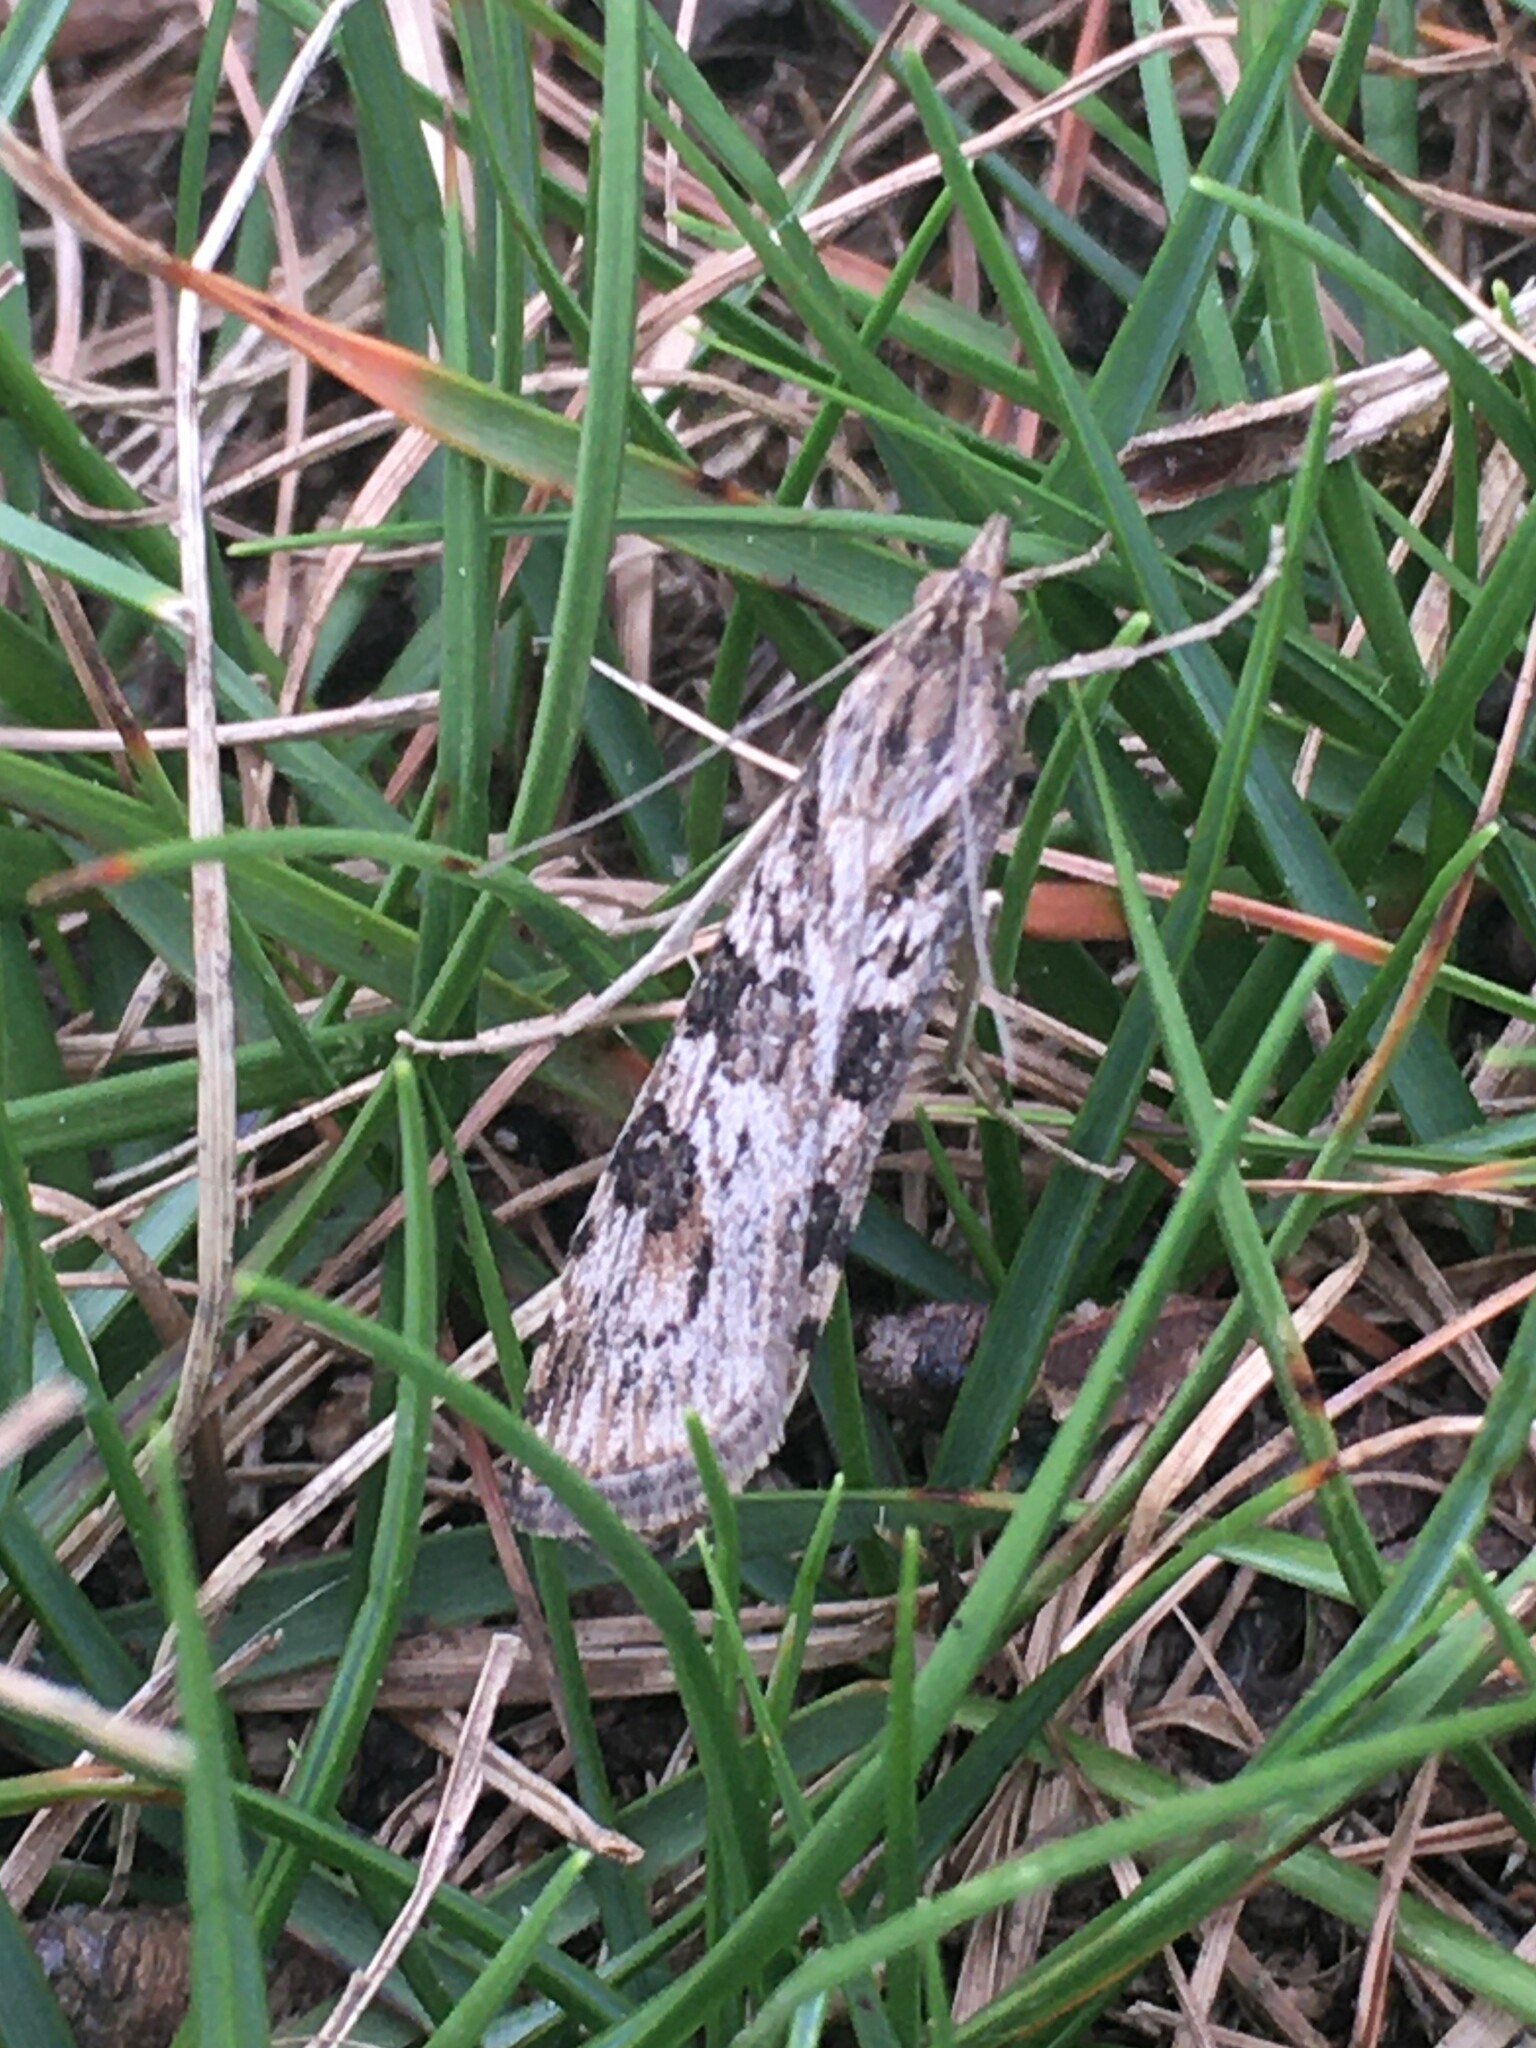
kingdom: Animalia
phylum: Arthropoda
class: Insecta
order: Lepidoptera
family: Crambidae
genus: Nomophila
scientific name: Nomophila nearctica
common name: American rush veneer
